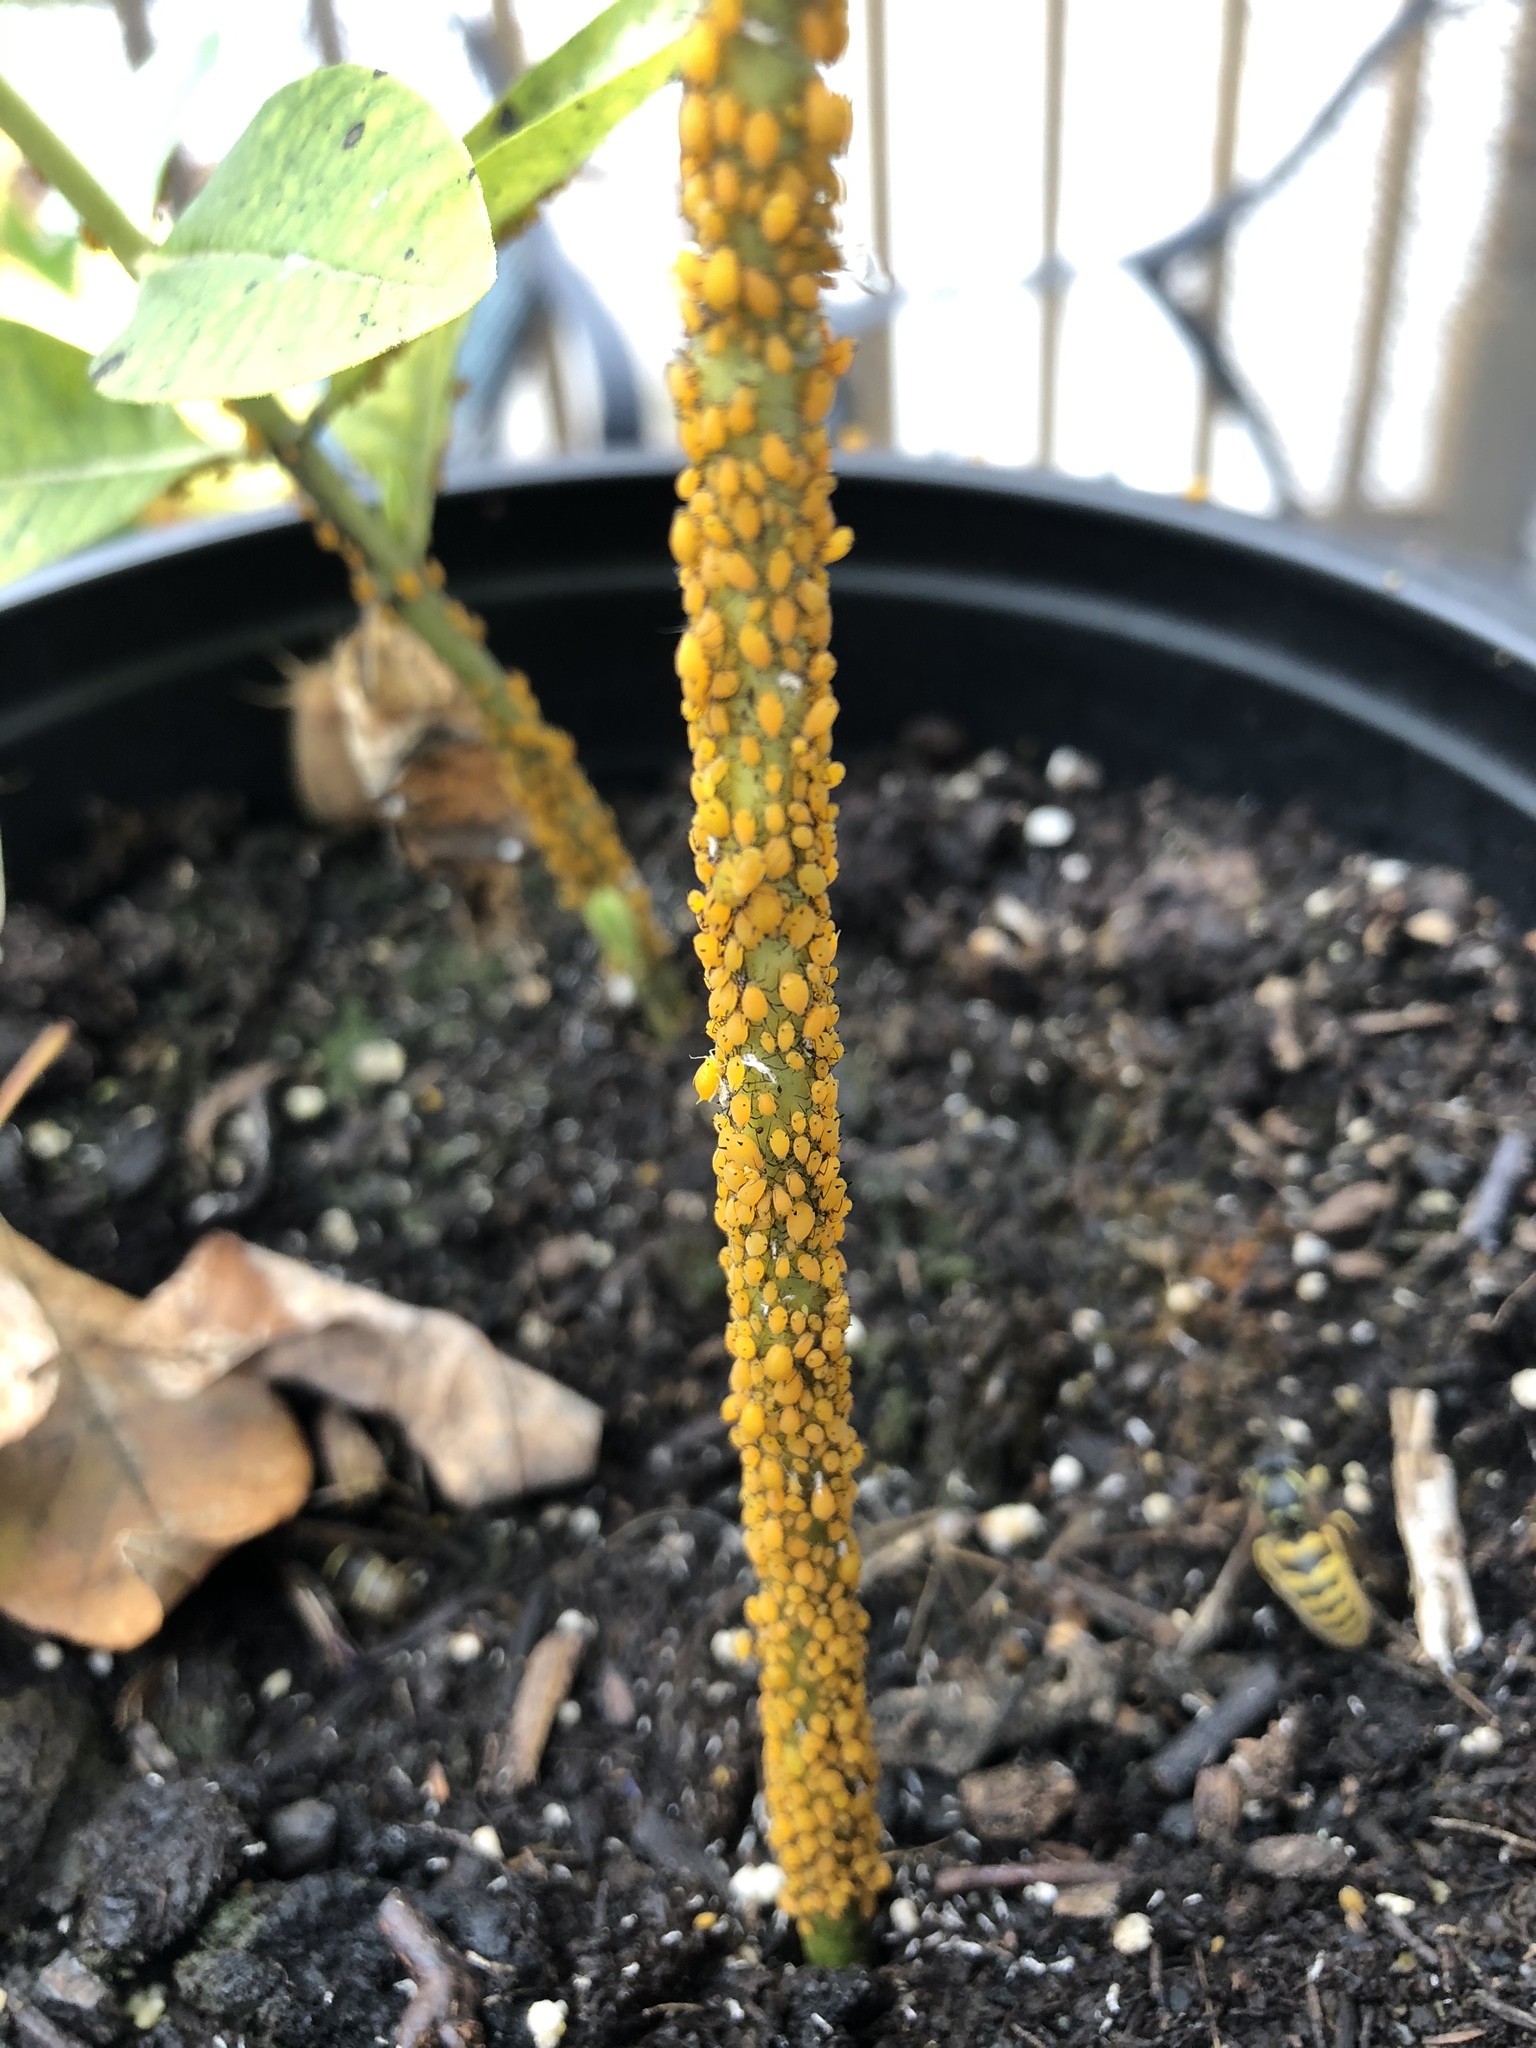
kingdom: Animalia
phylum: Arthropoda
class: Insecta
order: Hemiptera
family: Aphididae
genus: Aphis
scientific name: Aphis nerii
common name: Oleander aphid
